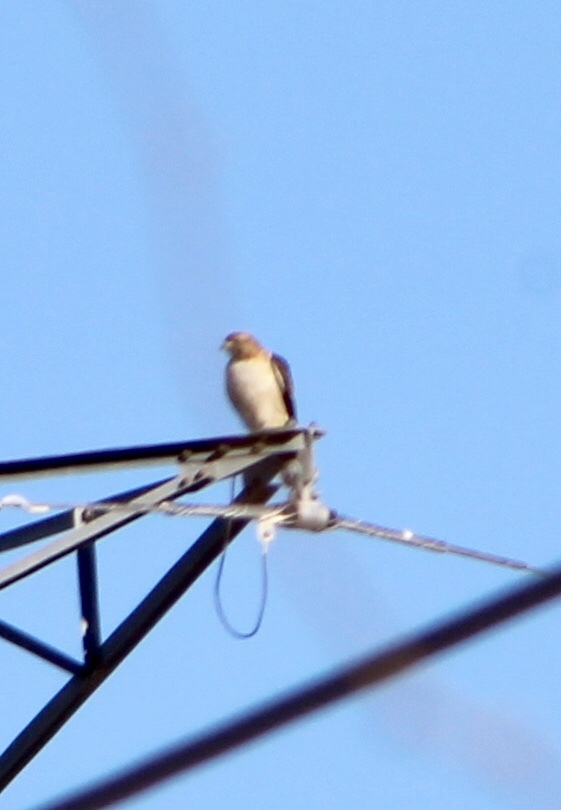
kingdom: Animalia
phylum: Chordata
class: Aves
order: Accipitriformes
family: Accipitridae
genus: Buteo
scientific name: Buteo jamaicensis
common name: Red-tailed hawk
